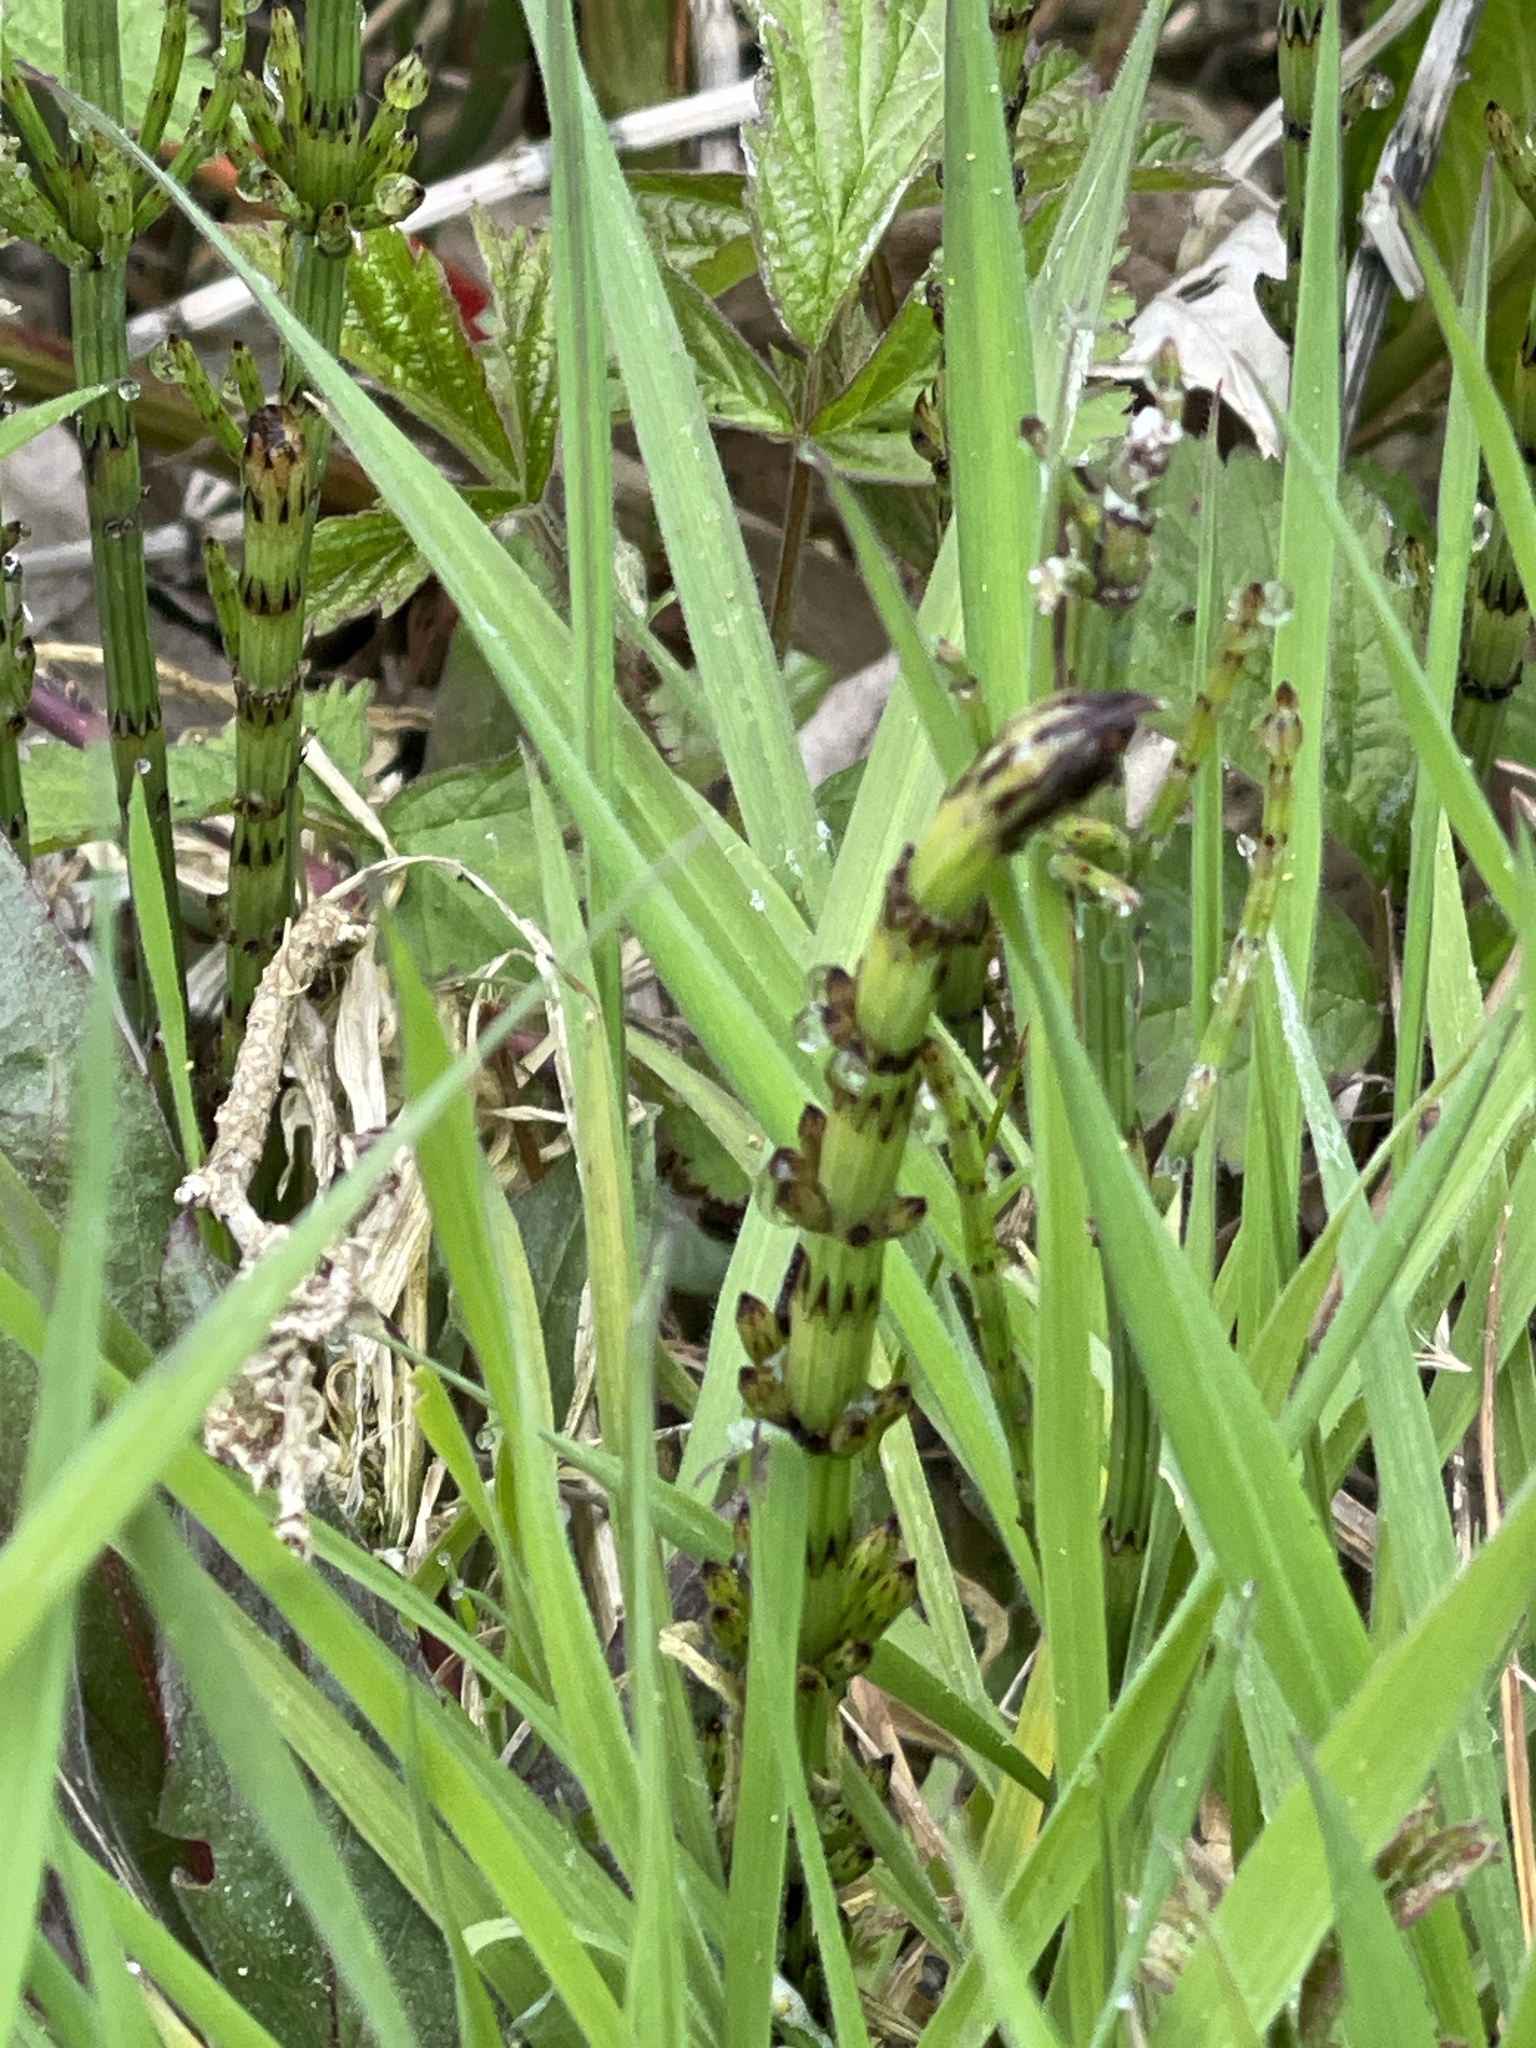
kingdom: Plantae
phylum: Tracheophyta
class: Polypodiopsida
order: Equisetales
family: Equisetaceae
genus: Equisetum
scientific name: Equisetum palustre
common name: Marsh horsetail
